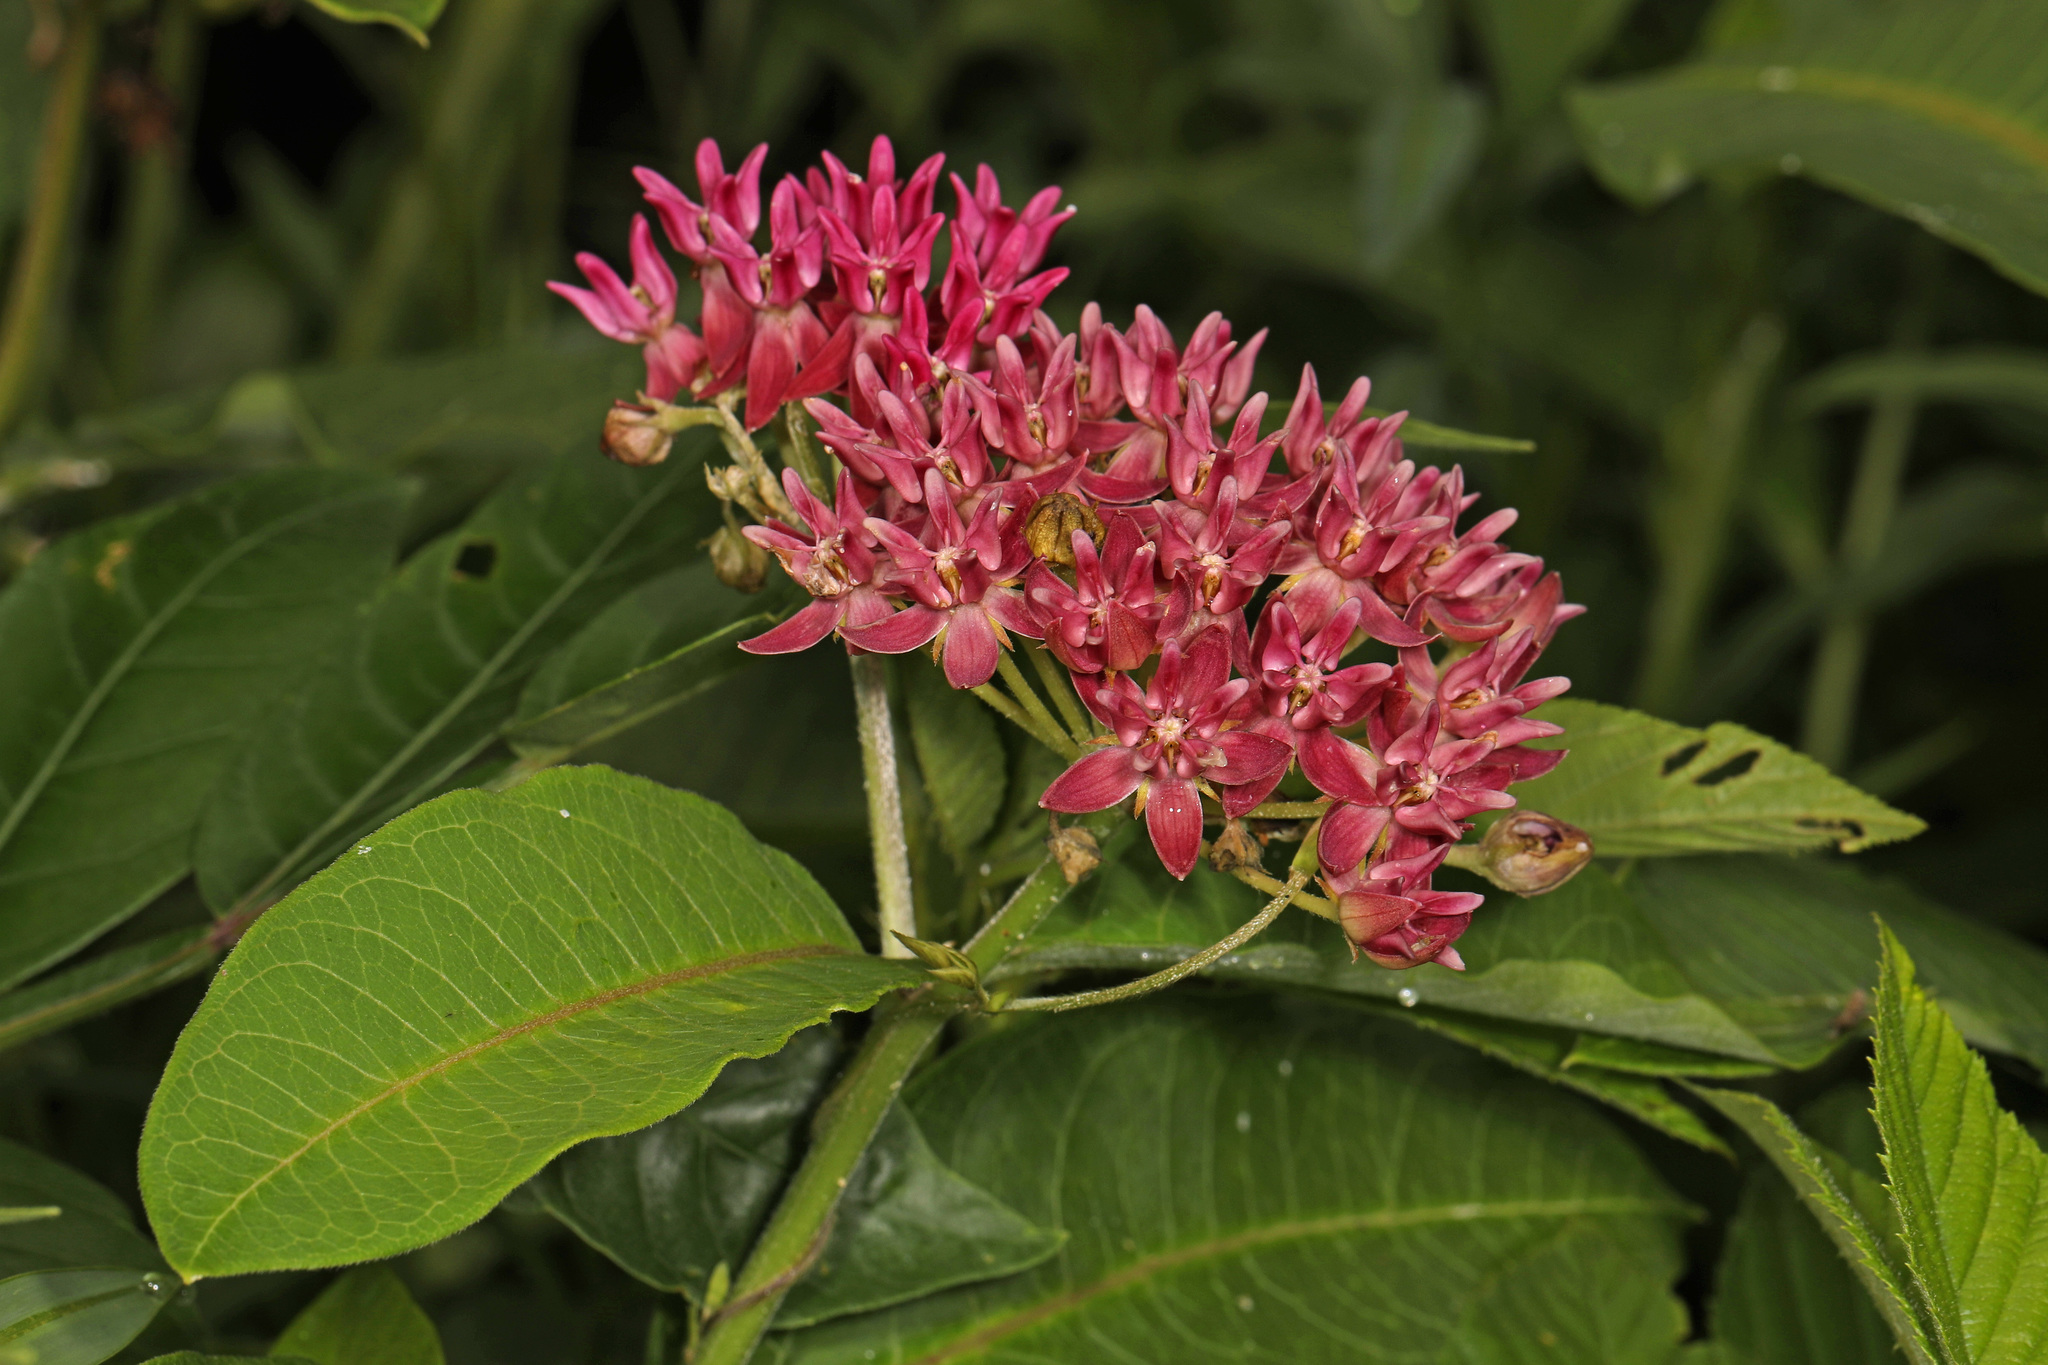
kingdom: Plantae
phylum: Tracheophyta
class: Magnoliopsida
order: Gentianales
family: Apocynaceae
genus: Asclepias
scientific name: Asclepias purpurascens
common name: Purple milkweed
